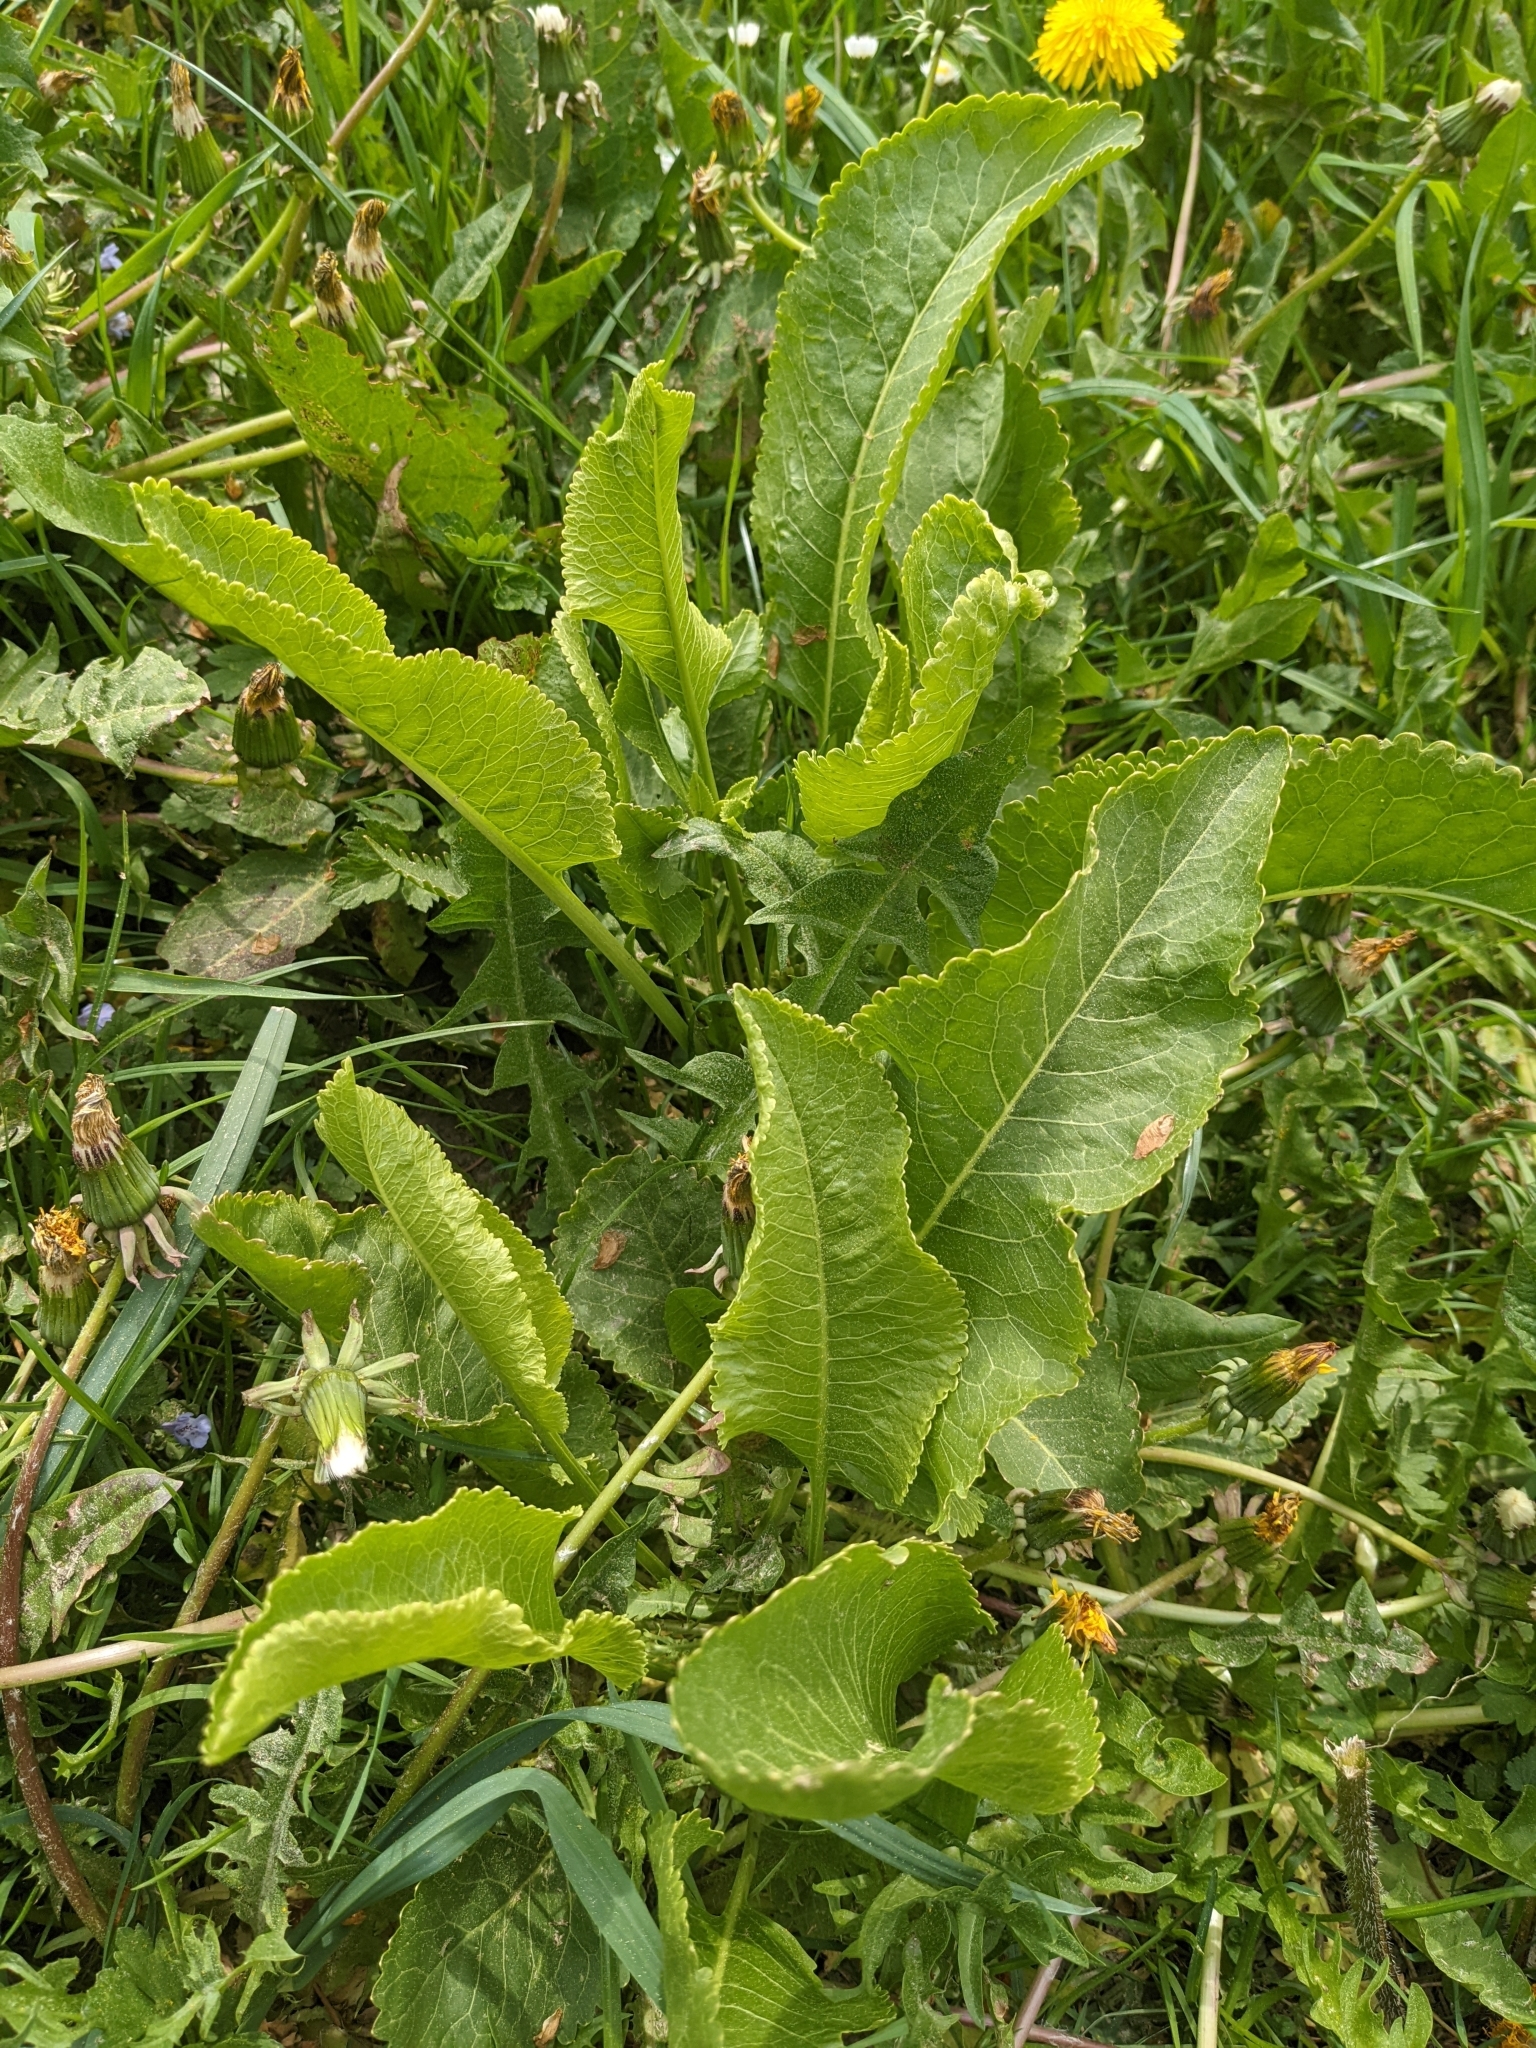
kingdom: Plantae
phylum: Tracheophyta
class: Magnoliopsida
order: Brassicales
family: Brassicaceae
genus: Armoracia
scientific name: Armoracia rusticana
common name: Horseradish
